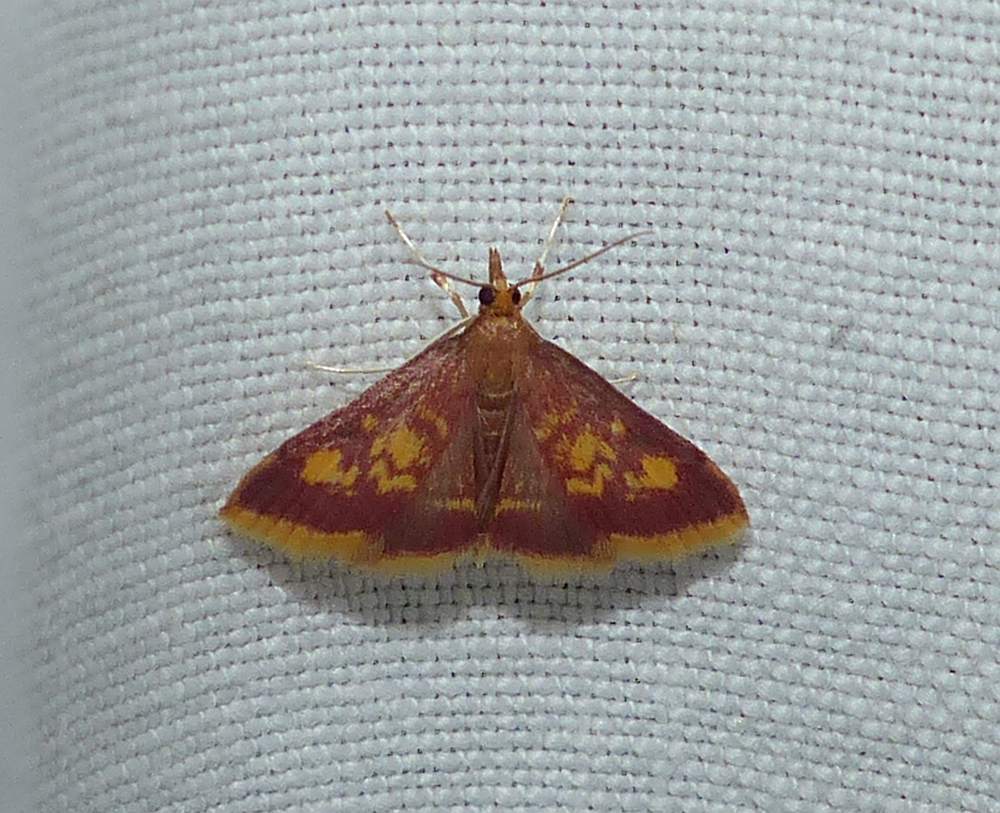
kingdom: Animalia
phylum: Arthropoda
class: Insecta
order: Lepidoptera
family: Crambidae
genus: Pyrausta
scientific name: Pyrausta acrionalis
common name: Mint-loving pyrausta moth
